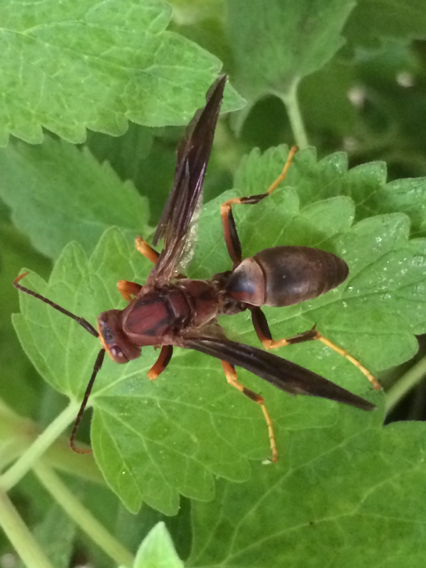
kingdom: Animalia
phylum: Arthropoda
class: Insecta
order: Hymenoptera
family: Eumenidae
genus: Polistes
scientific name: Polistes metricus
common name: Metric paper wasp
